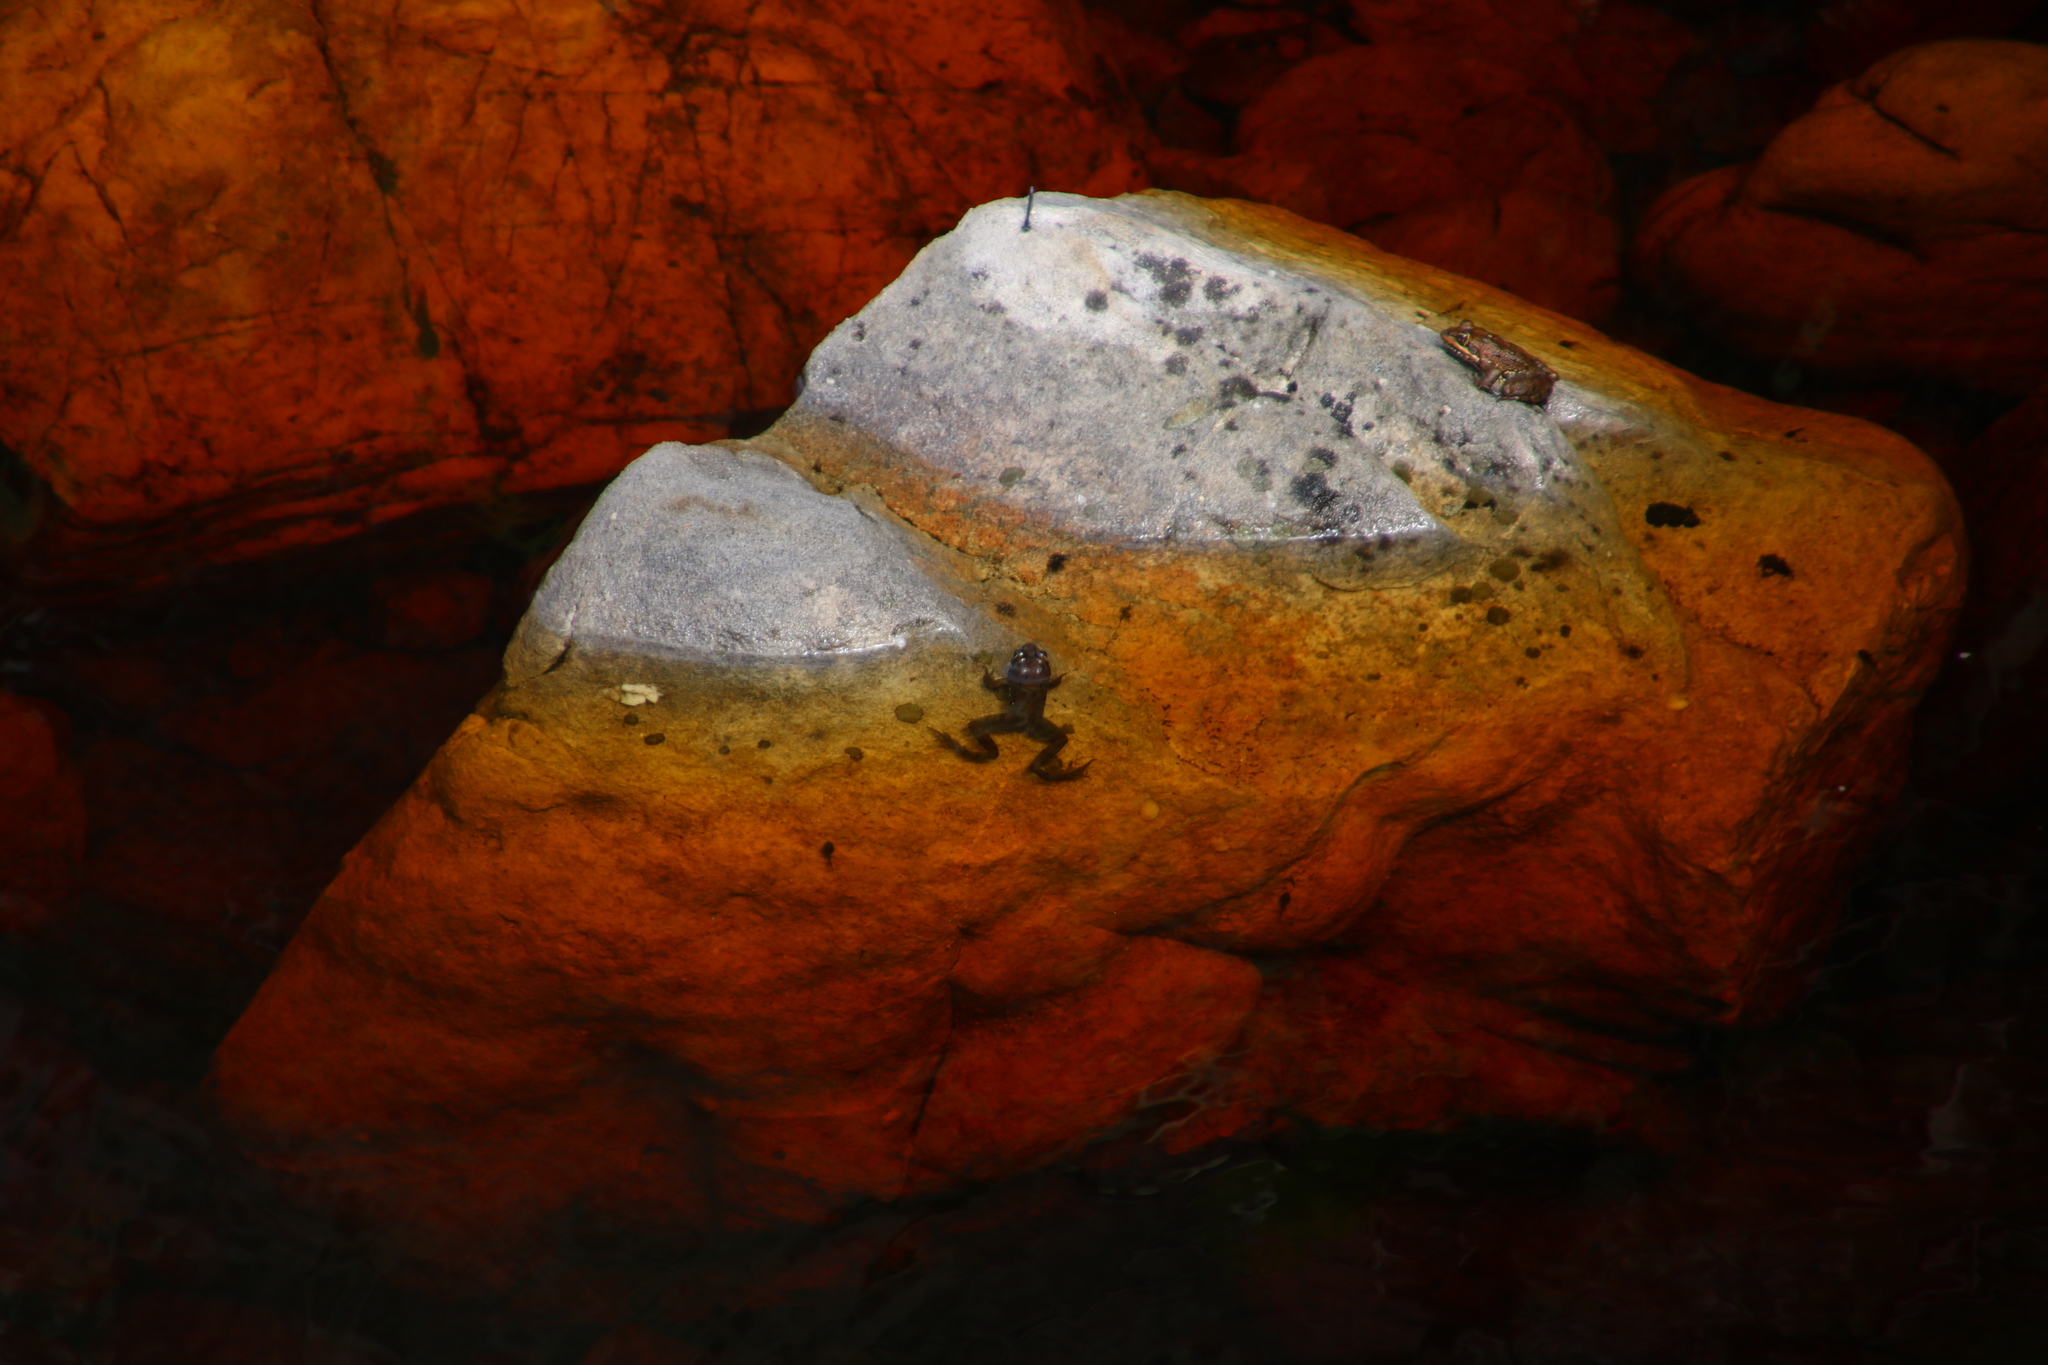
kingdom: Animalia
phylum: Chordata
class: Amphibia
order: Anura
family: Pyxicephalidae
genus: Amietia
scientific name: Amietia fuscigula
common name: Cape rana
